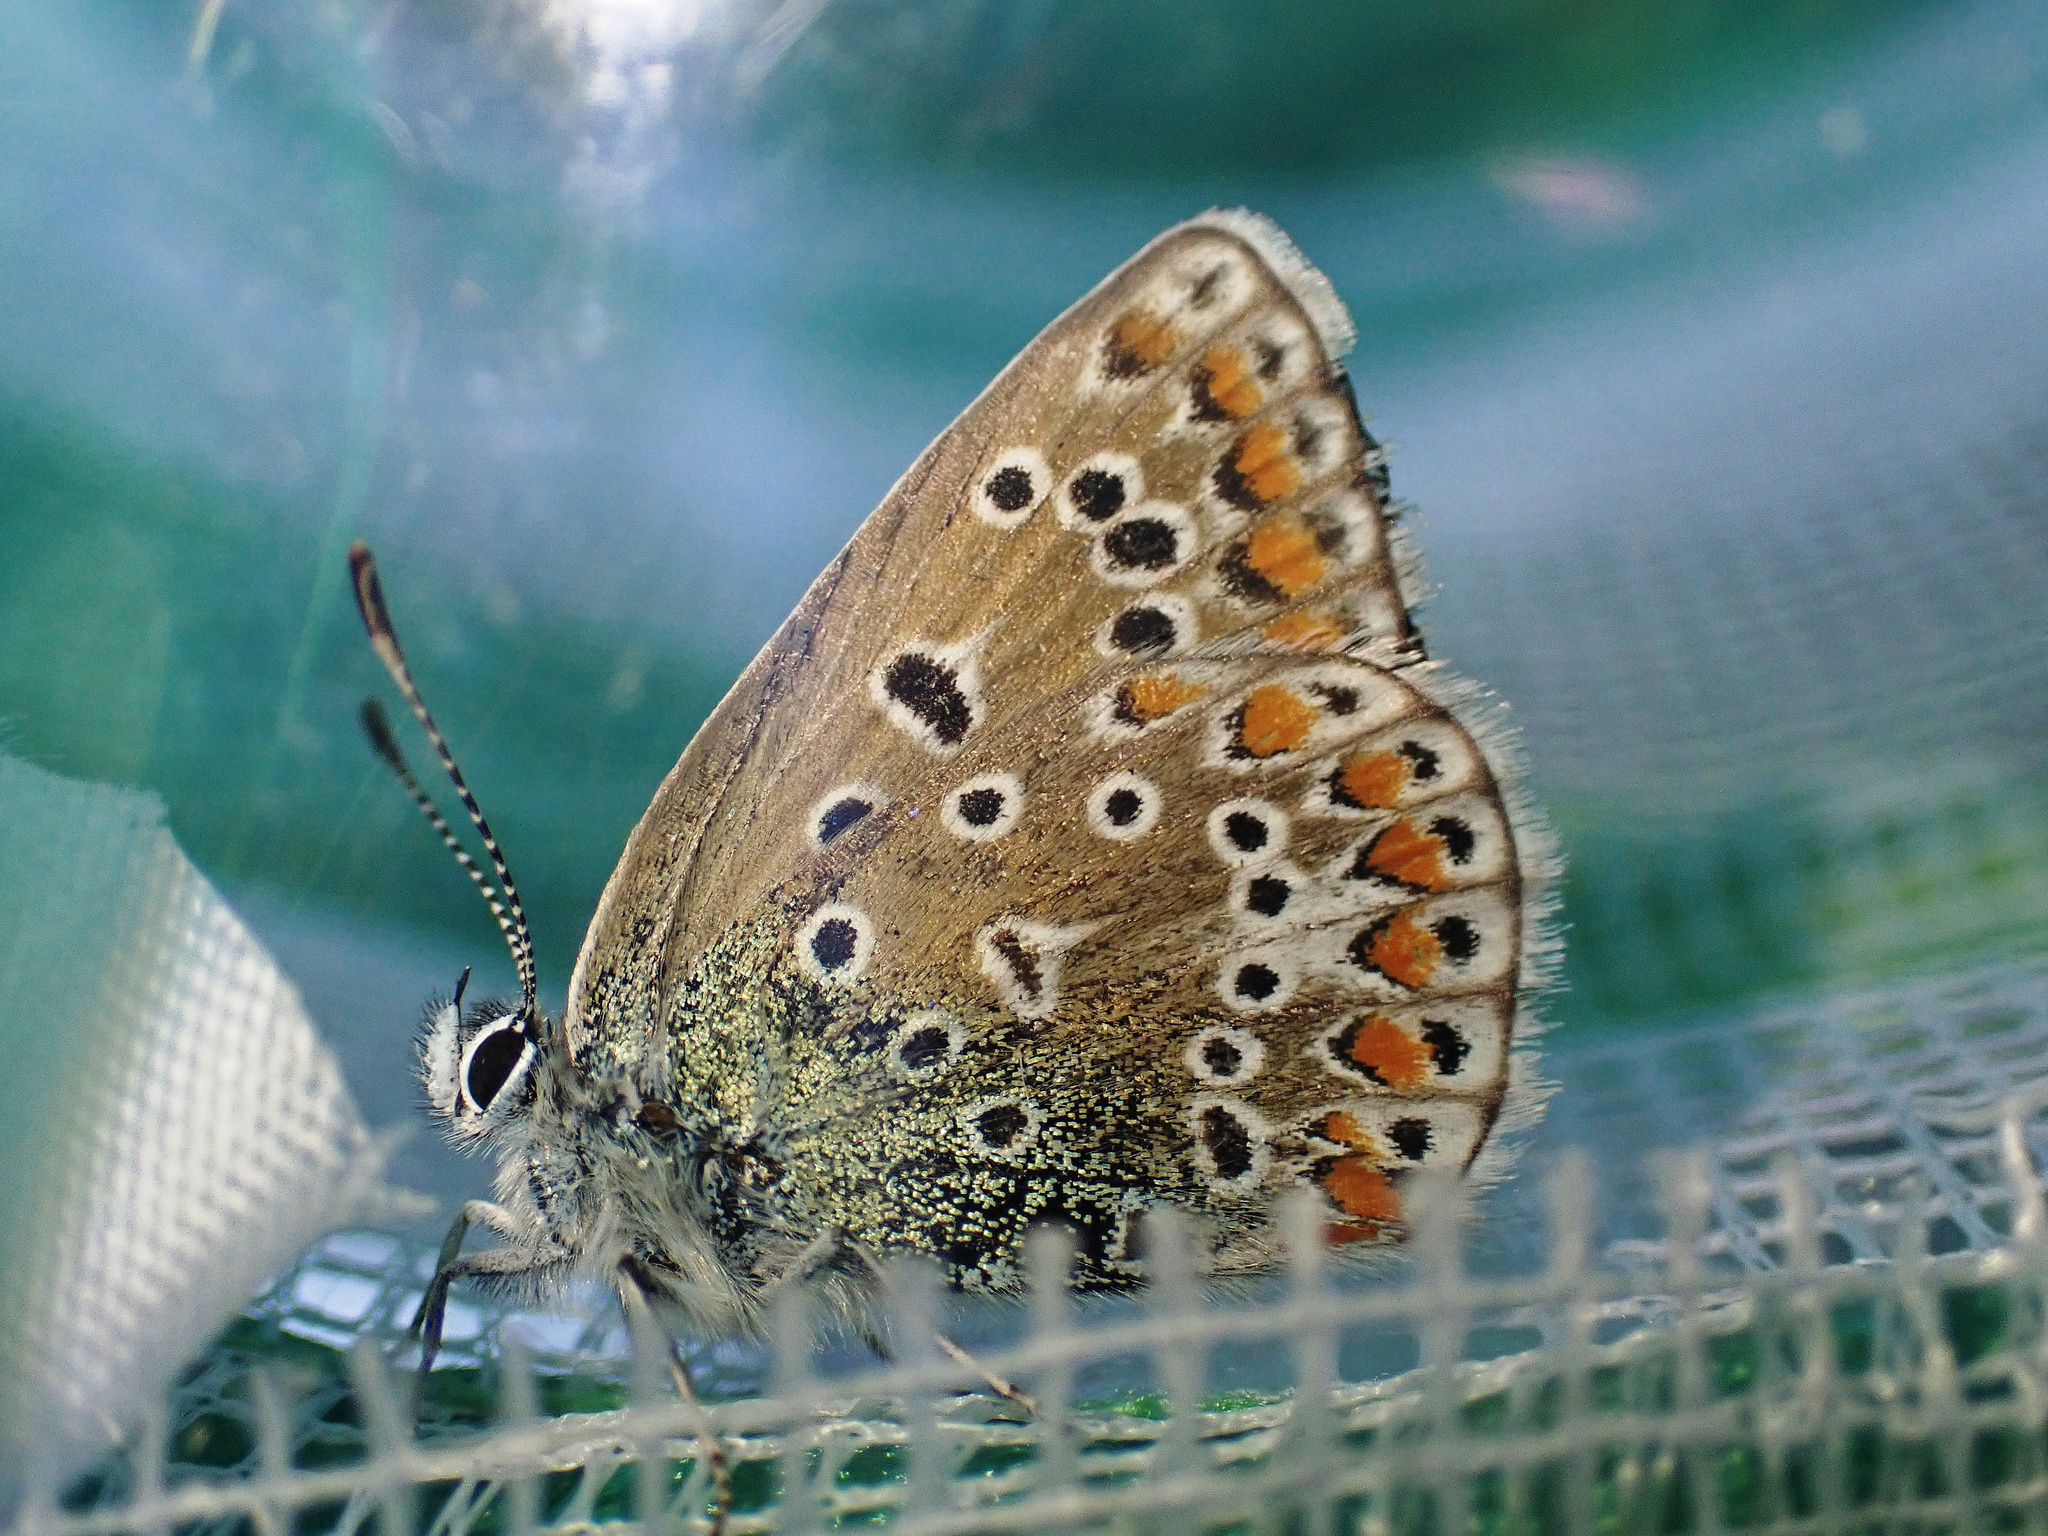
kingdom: Animalia
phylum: Arthropoda
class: Insecta
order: Lepidoptera
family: Lycaenidae
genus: Polyommatus
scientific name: Polyommatus icarus
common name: Common blue
